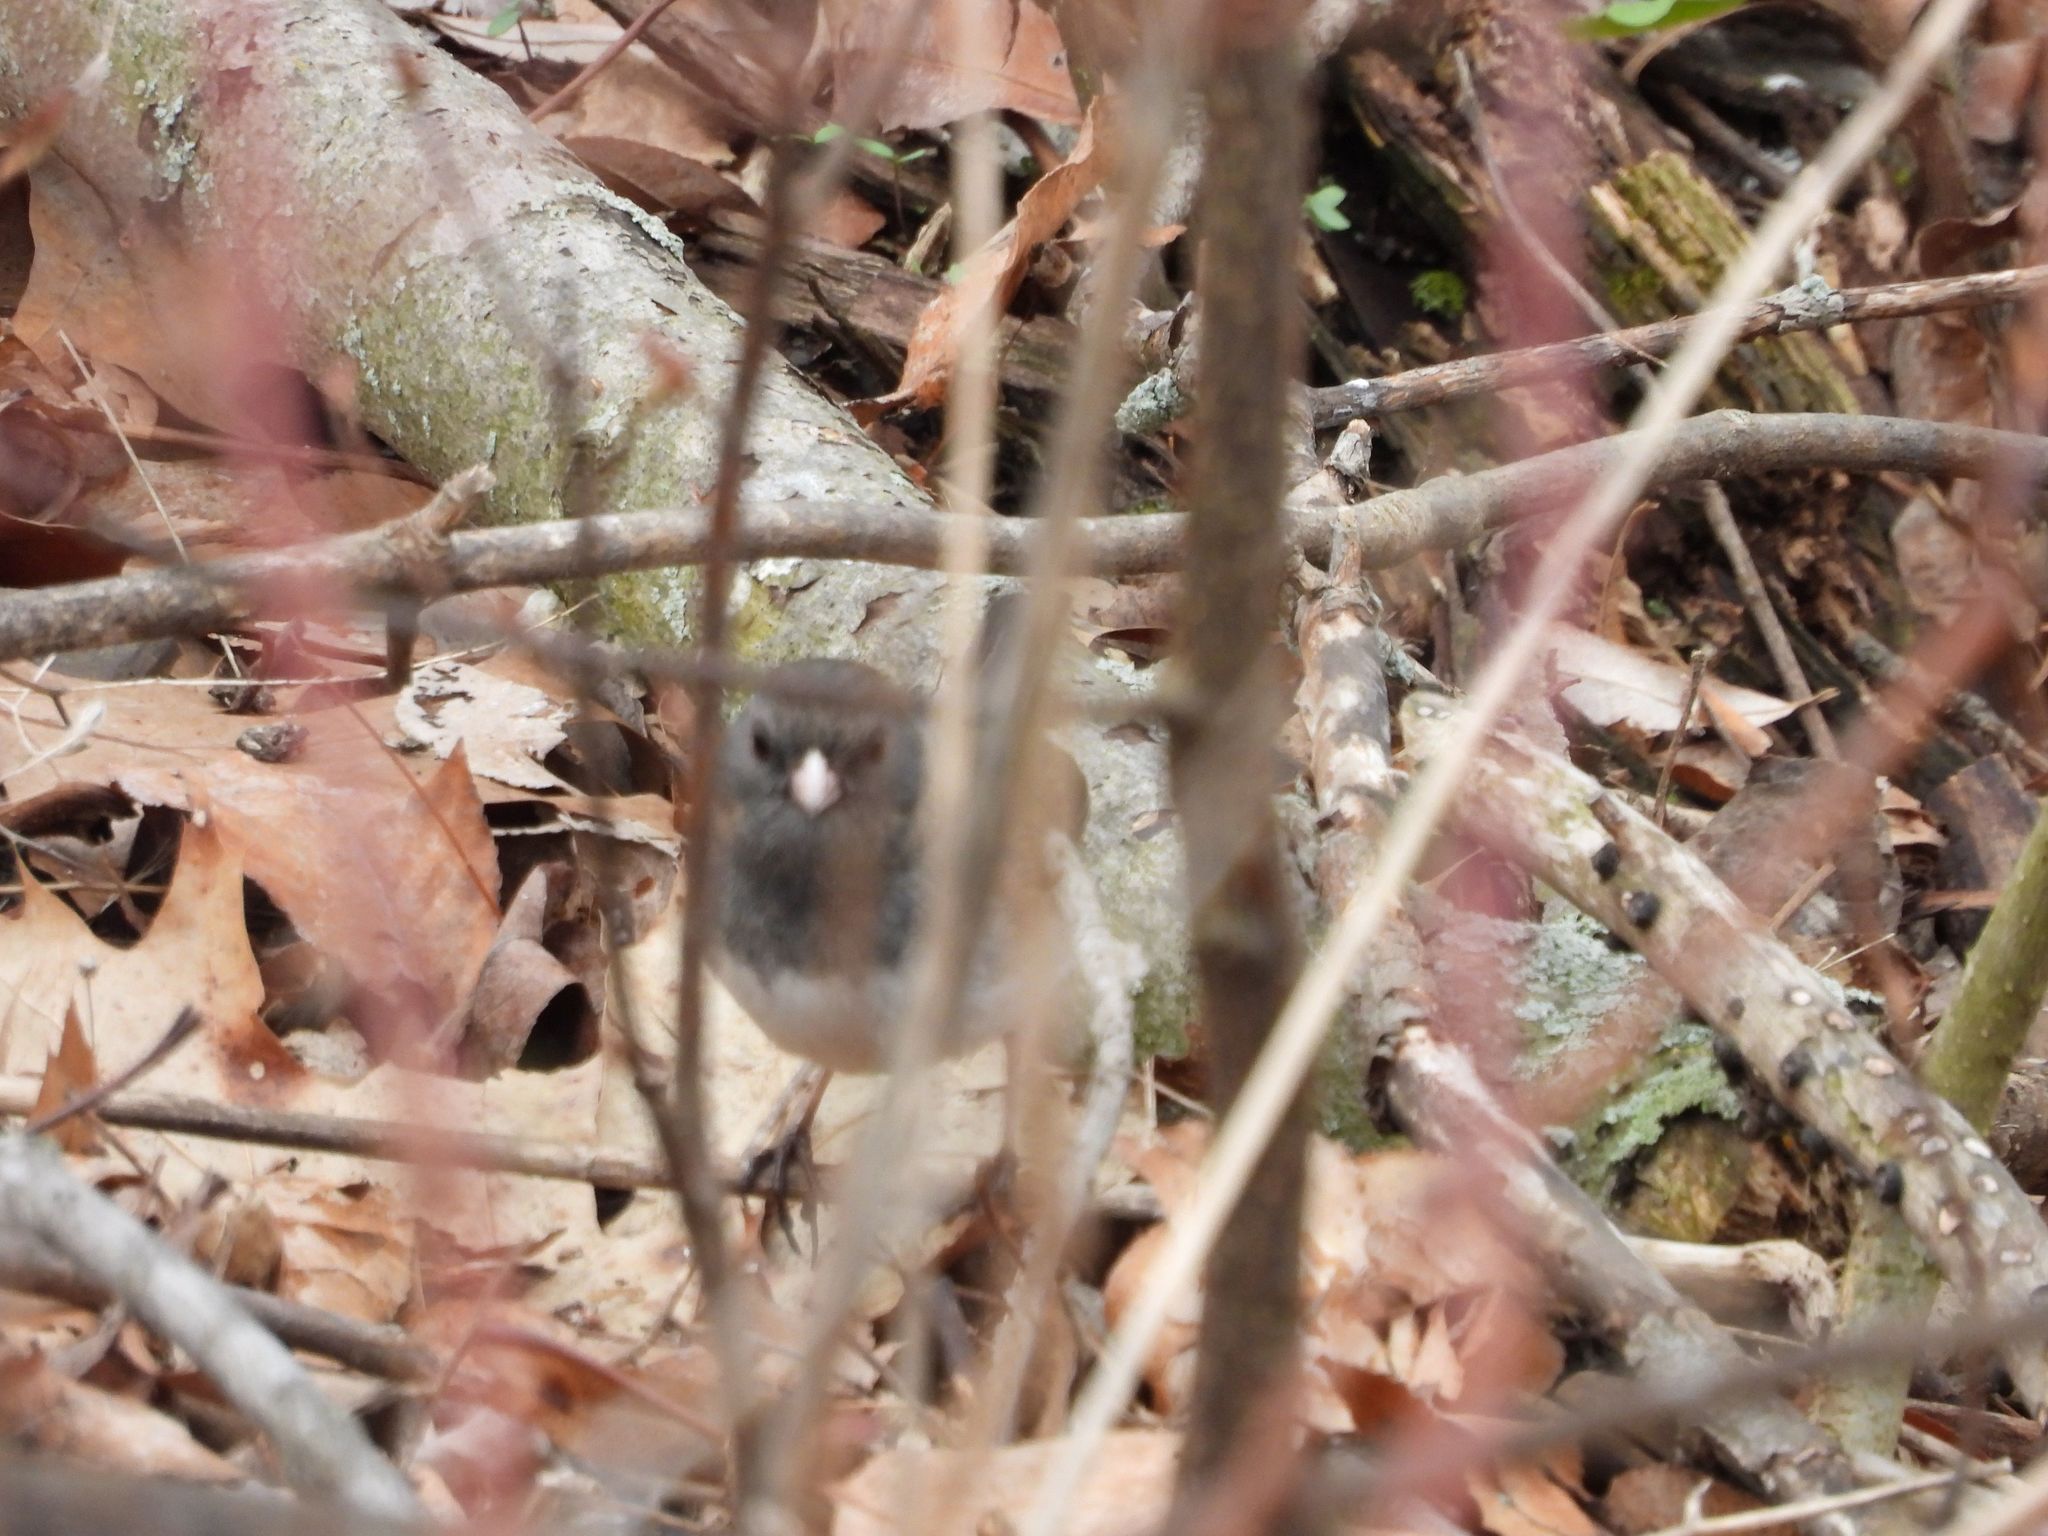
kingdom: Animalia
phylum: Chordata
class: Aves
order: Passeriformes
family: Passerellidae
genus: Junco
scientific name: Junco hyemalis
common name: Dark-eyed junco
